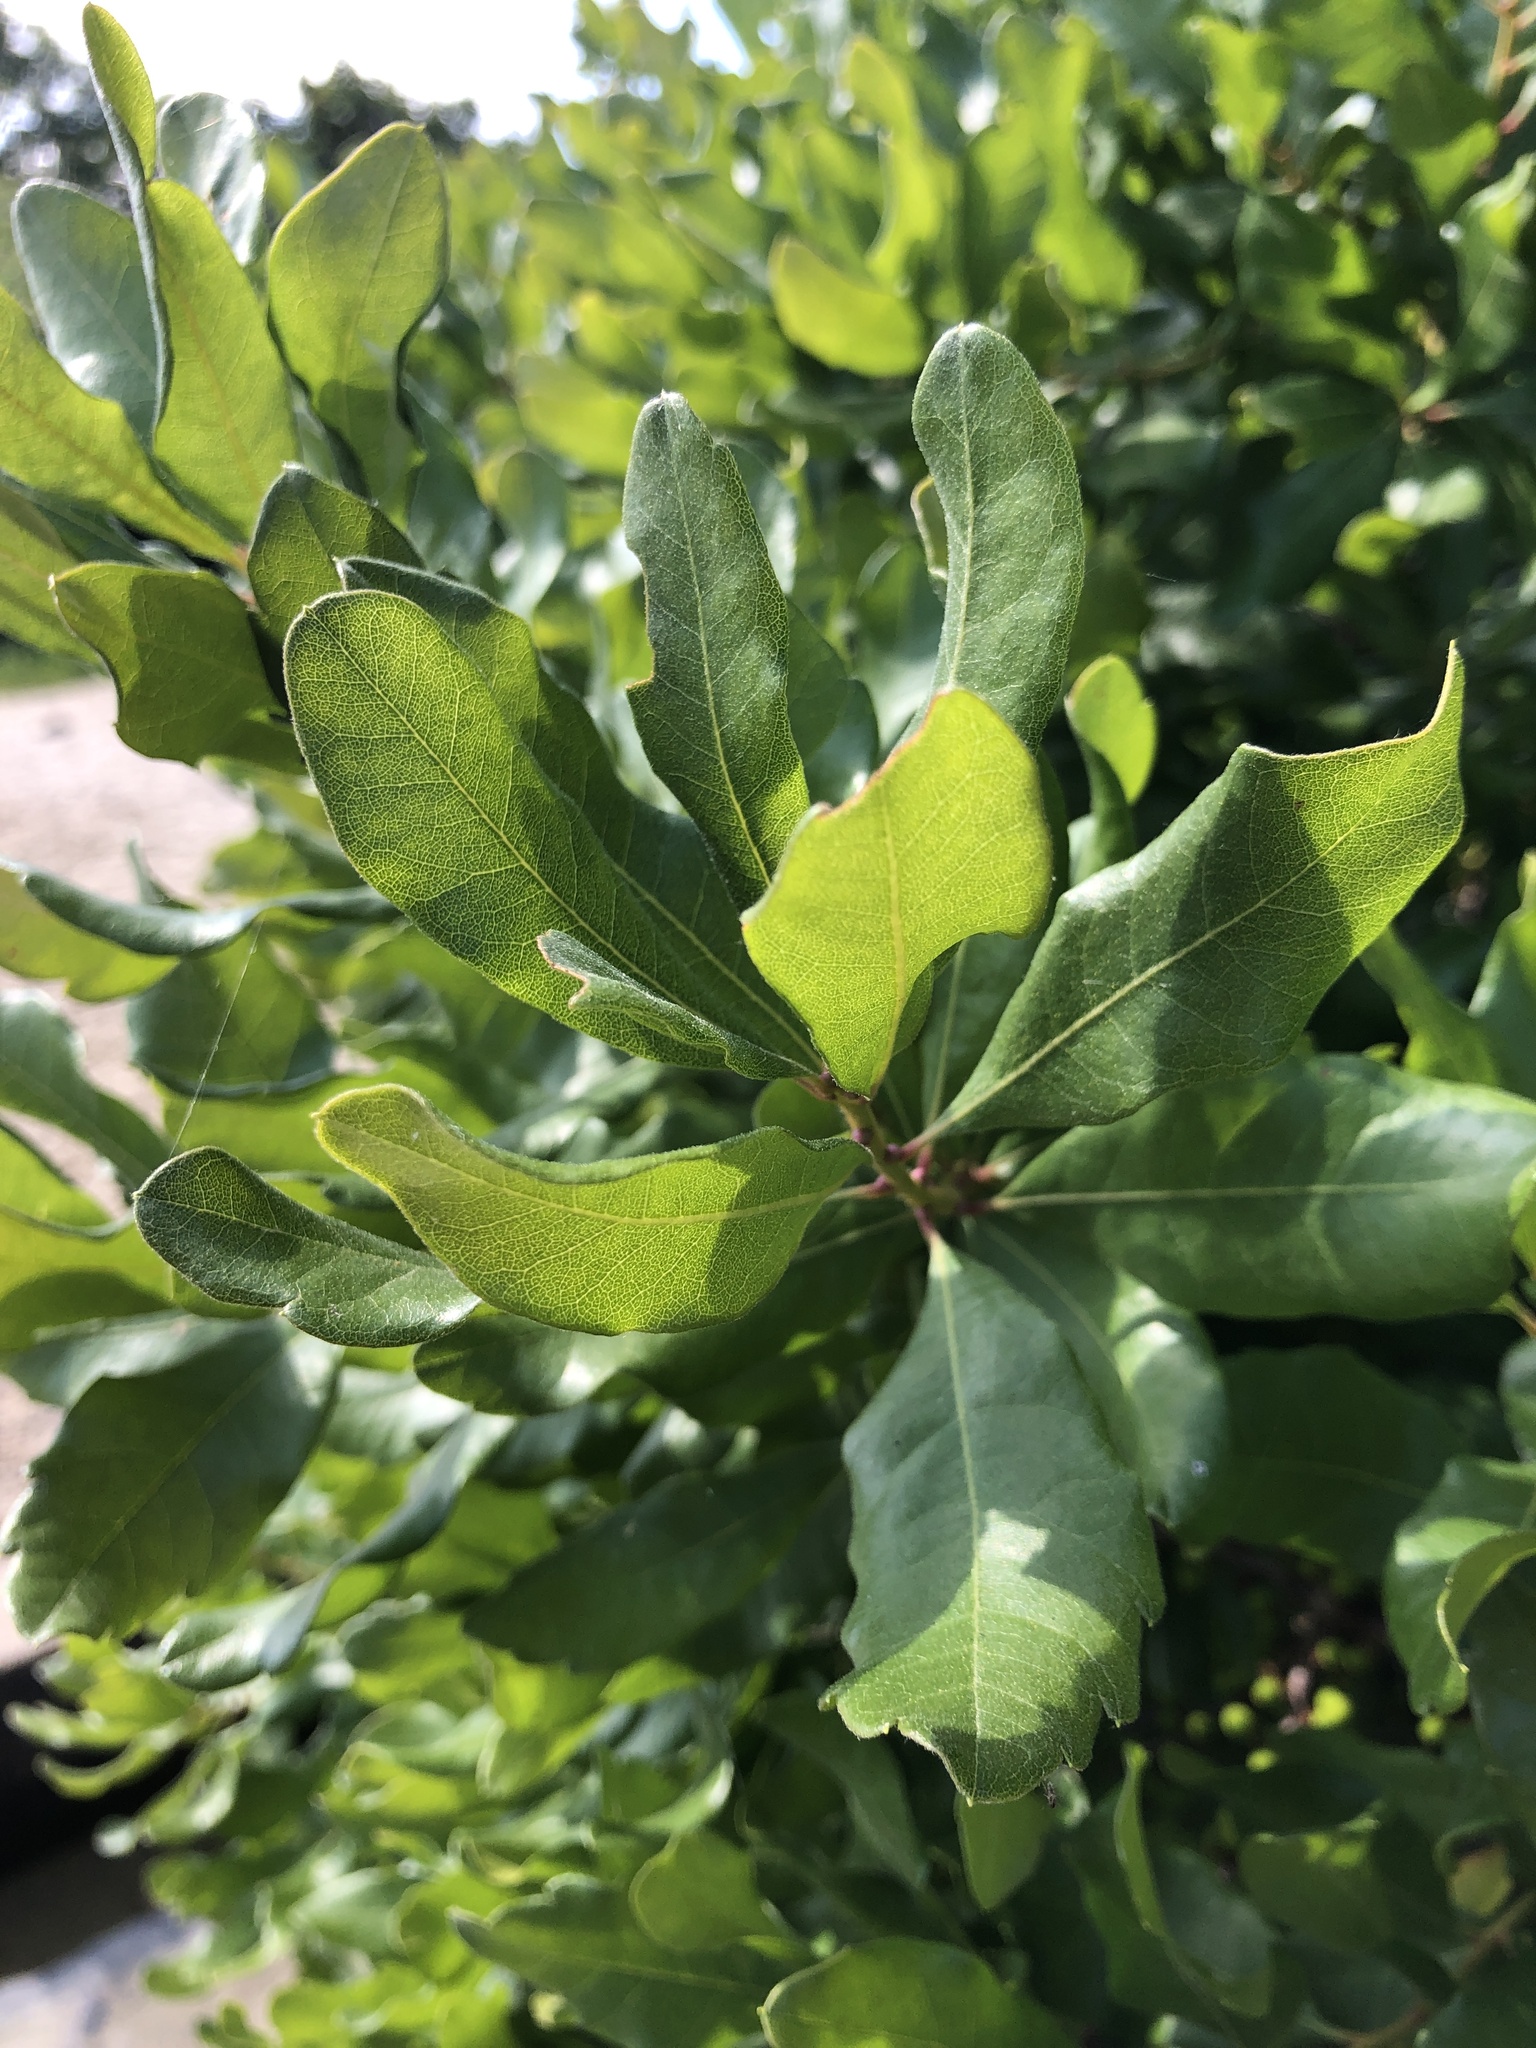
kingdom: Plantae
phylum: Tracheophyta
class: Magnoliopsida
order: Fagales
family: Myricaceae
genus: Morella
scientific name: Morella pensylvanica
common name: Northern bayberry
